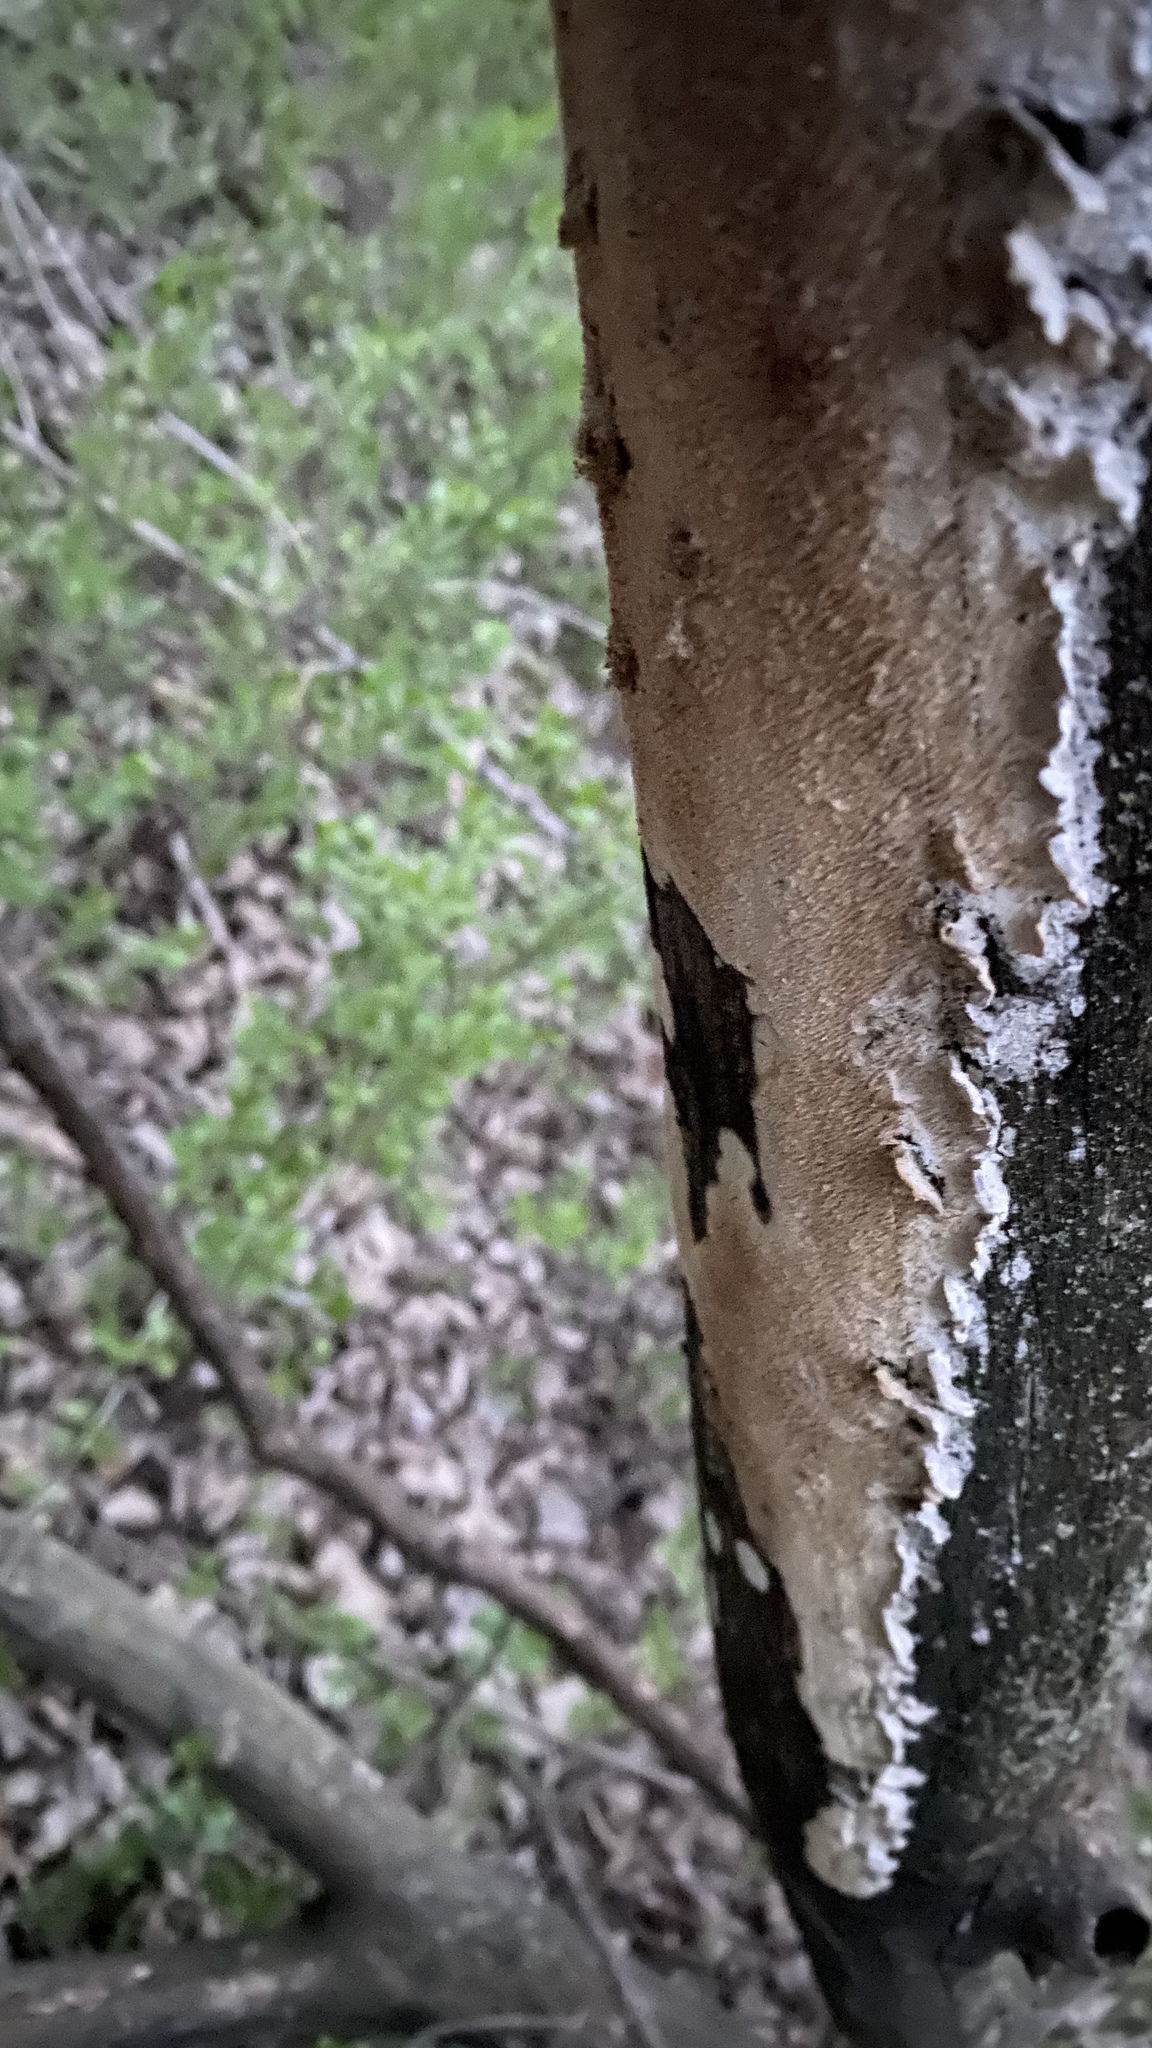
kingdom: Fungi
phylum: Basidiomycota
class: Agaricomycetes
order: Polyporales
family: Irpicaceae
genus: Irpex
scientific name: Irpex lacteus
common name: Milk-white toothed polypore
